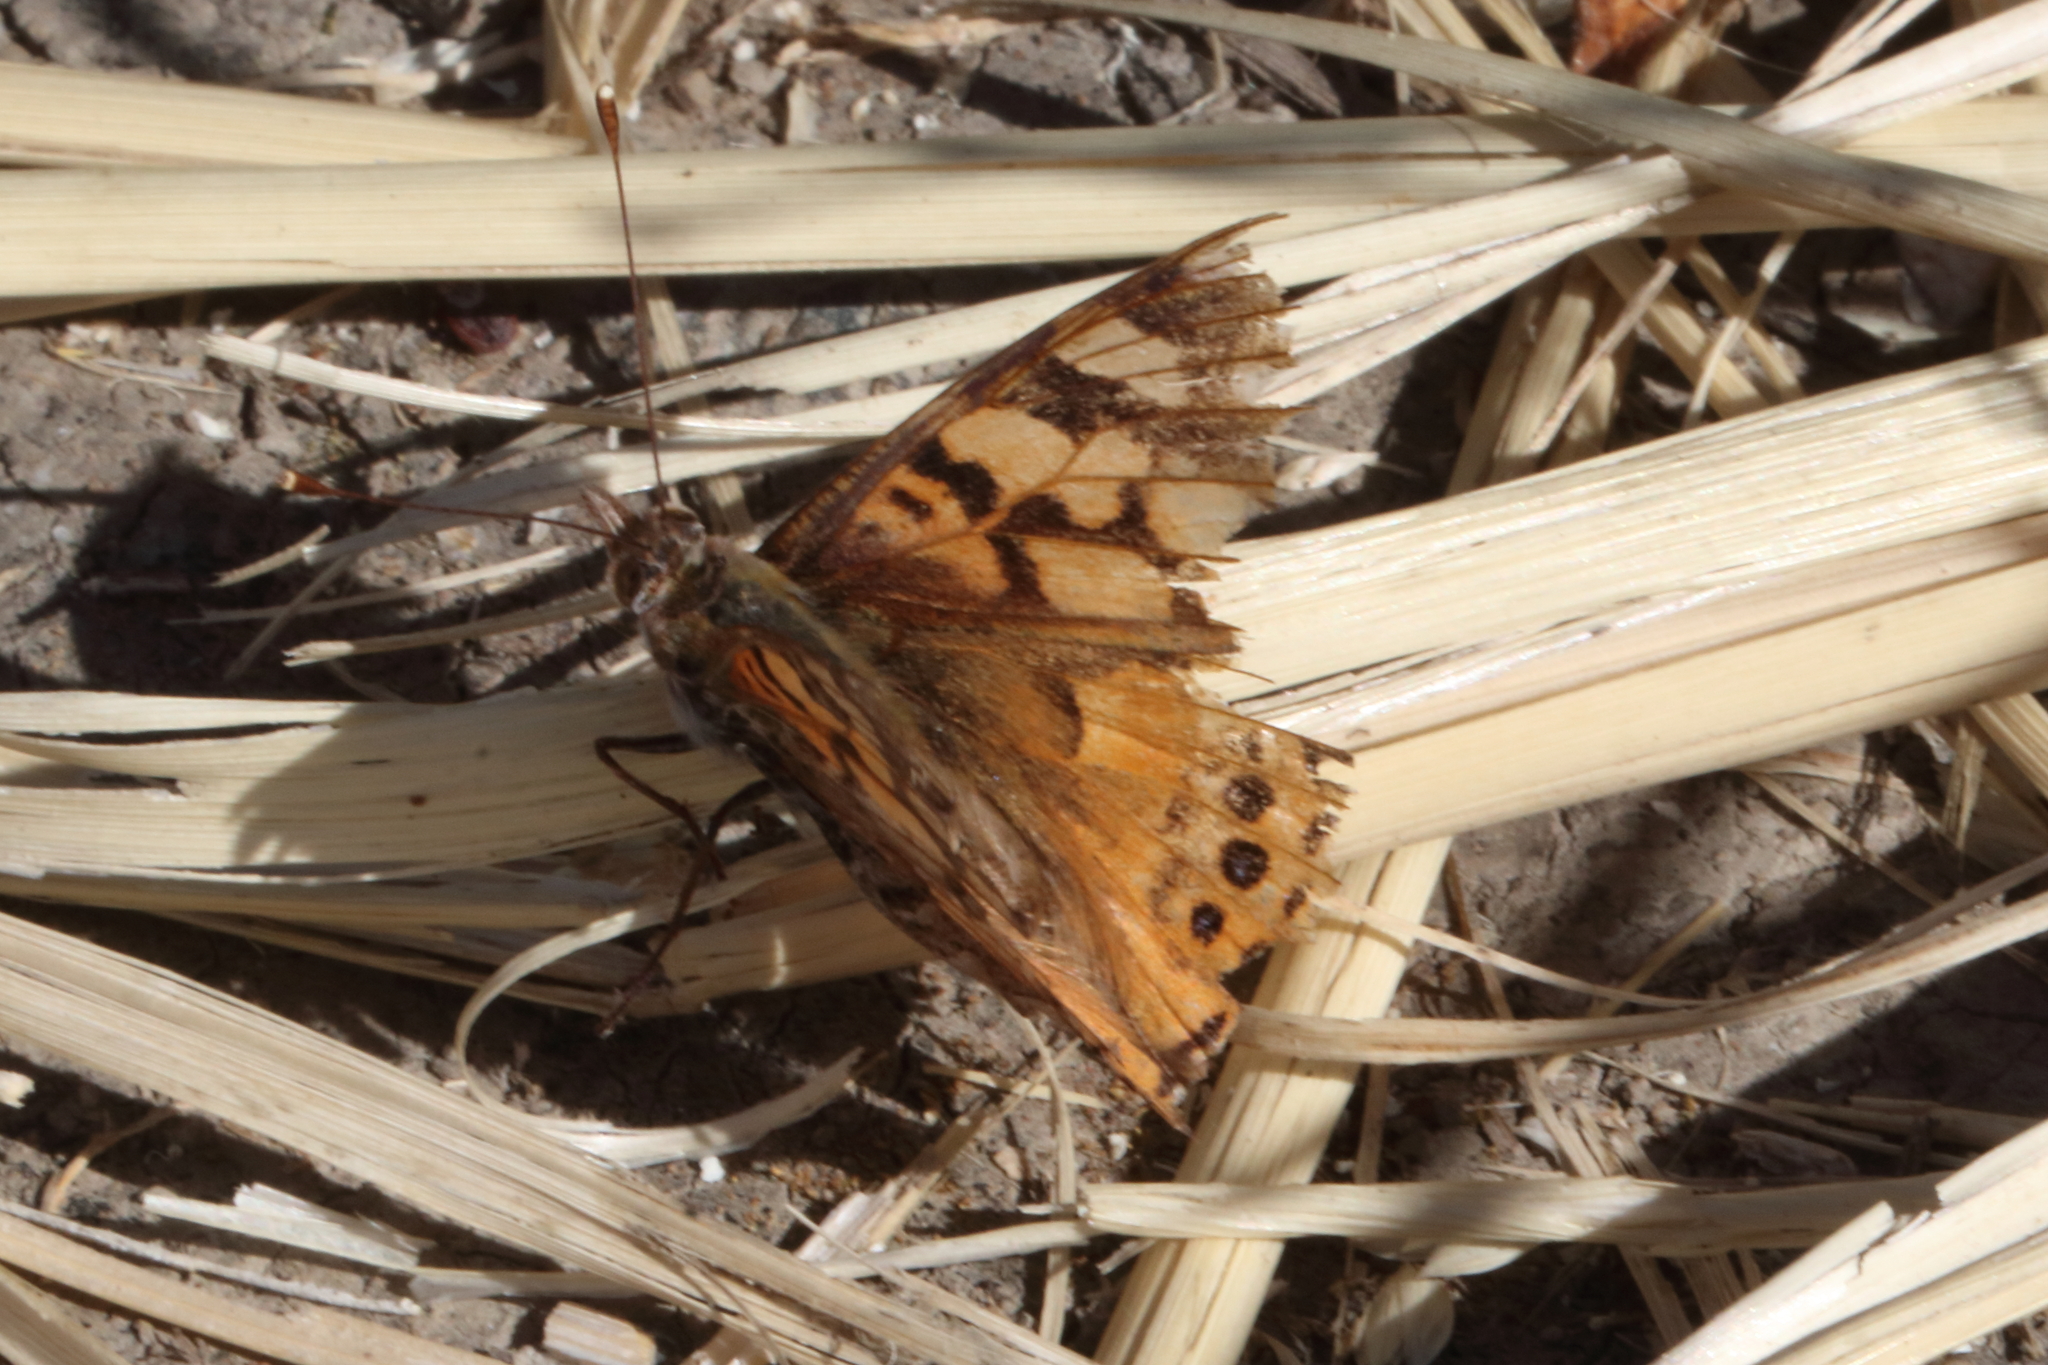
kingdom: Animalia
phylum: Arthropoda
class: Insecta
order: Lepidoptera
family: Nymphalidae
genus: Vanessa
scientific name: Vanessa annabella
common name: West coast lady
